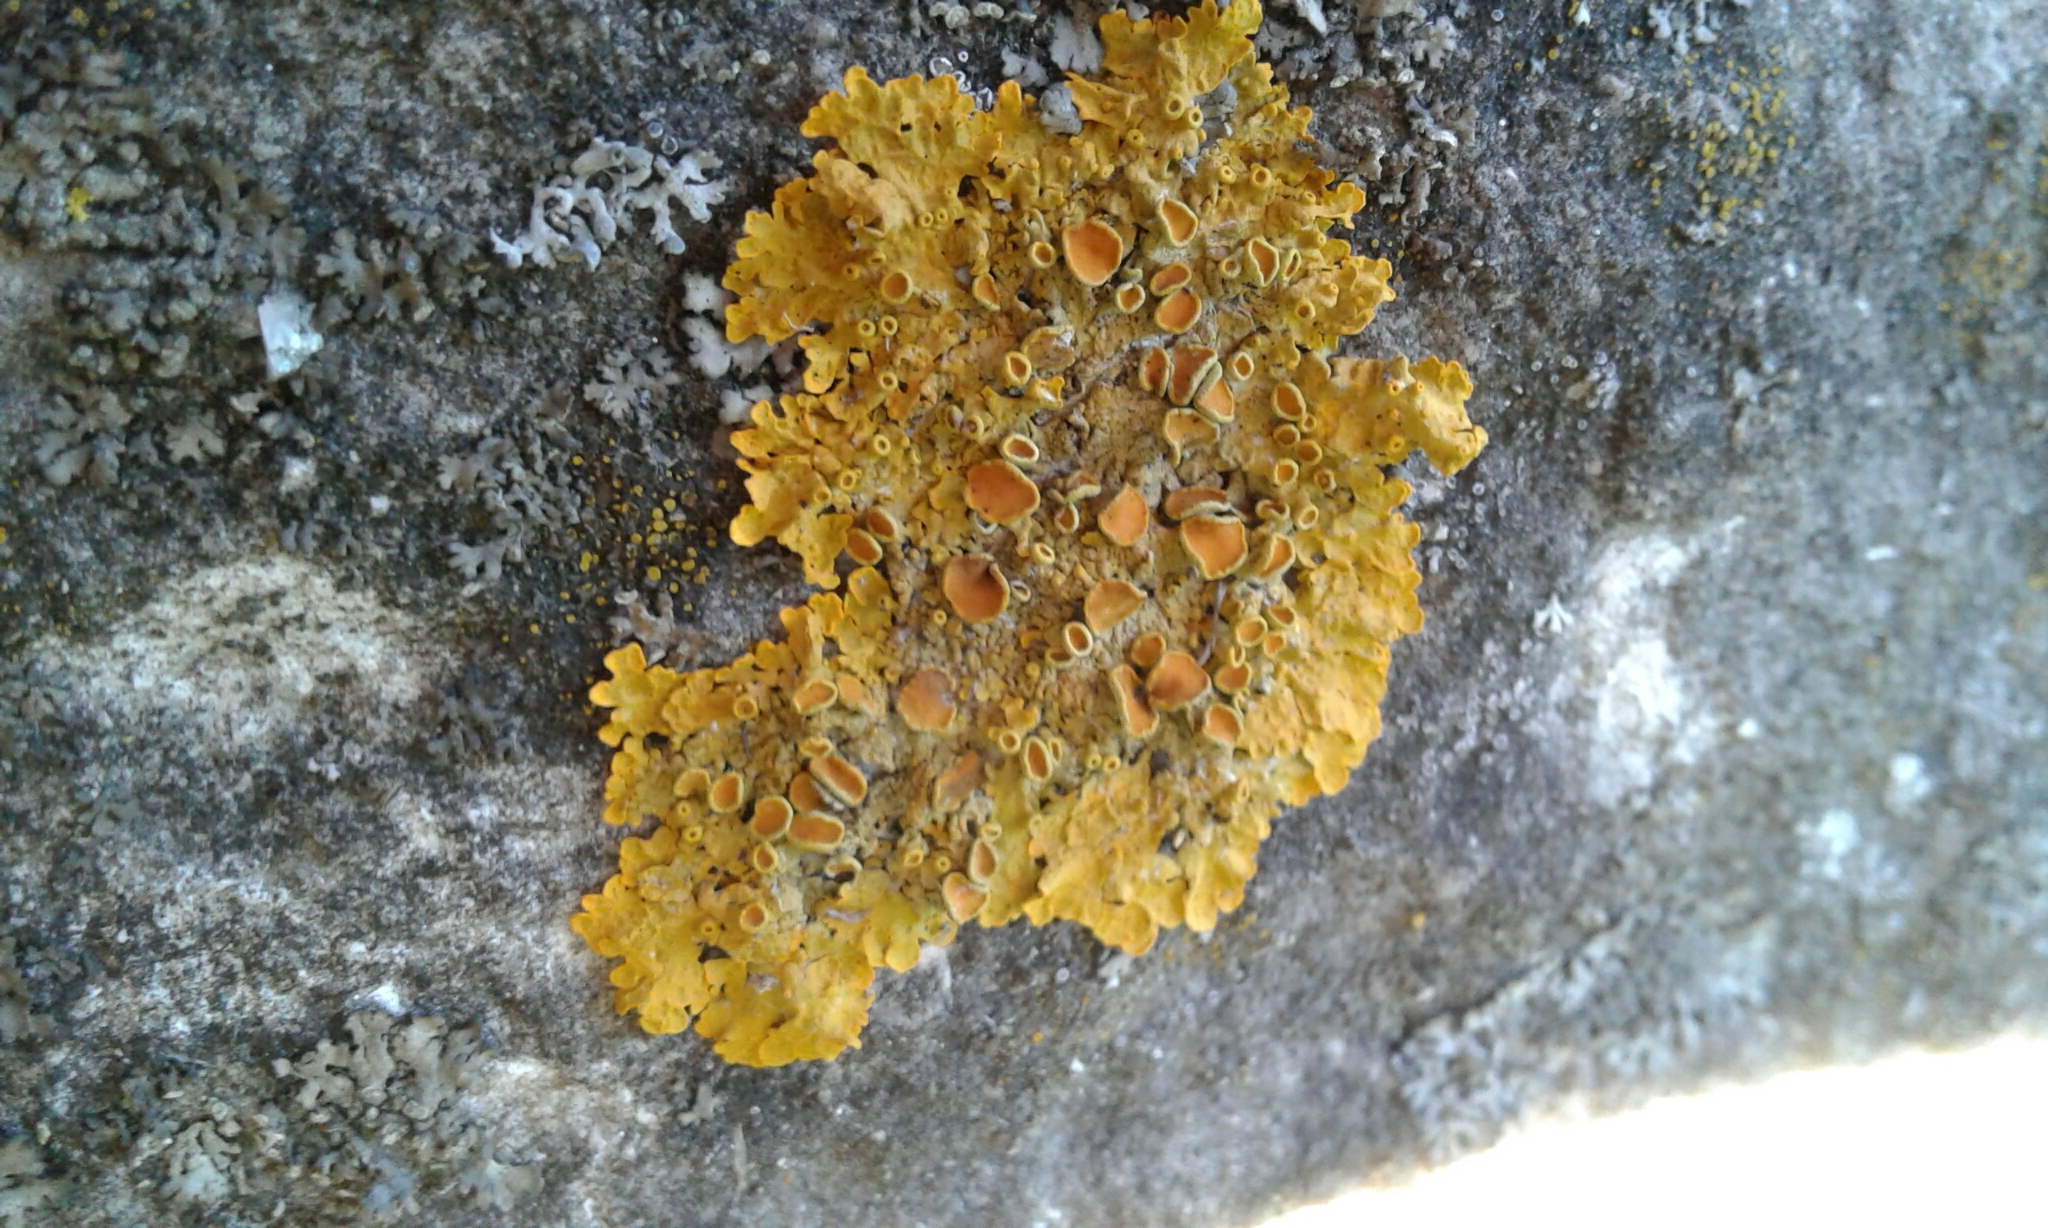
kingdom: Fungi
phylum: Ascomycota
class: Lecanoromycetes
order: Teloschistales
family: Teloschistaceae
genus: Xanthoria
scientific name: Xanthoria parietina
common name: Common orange lichen
